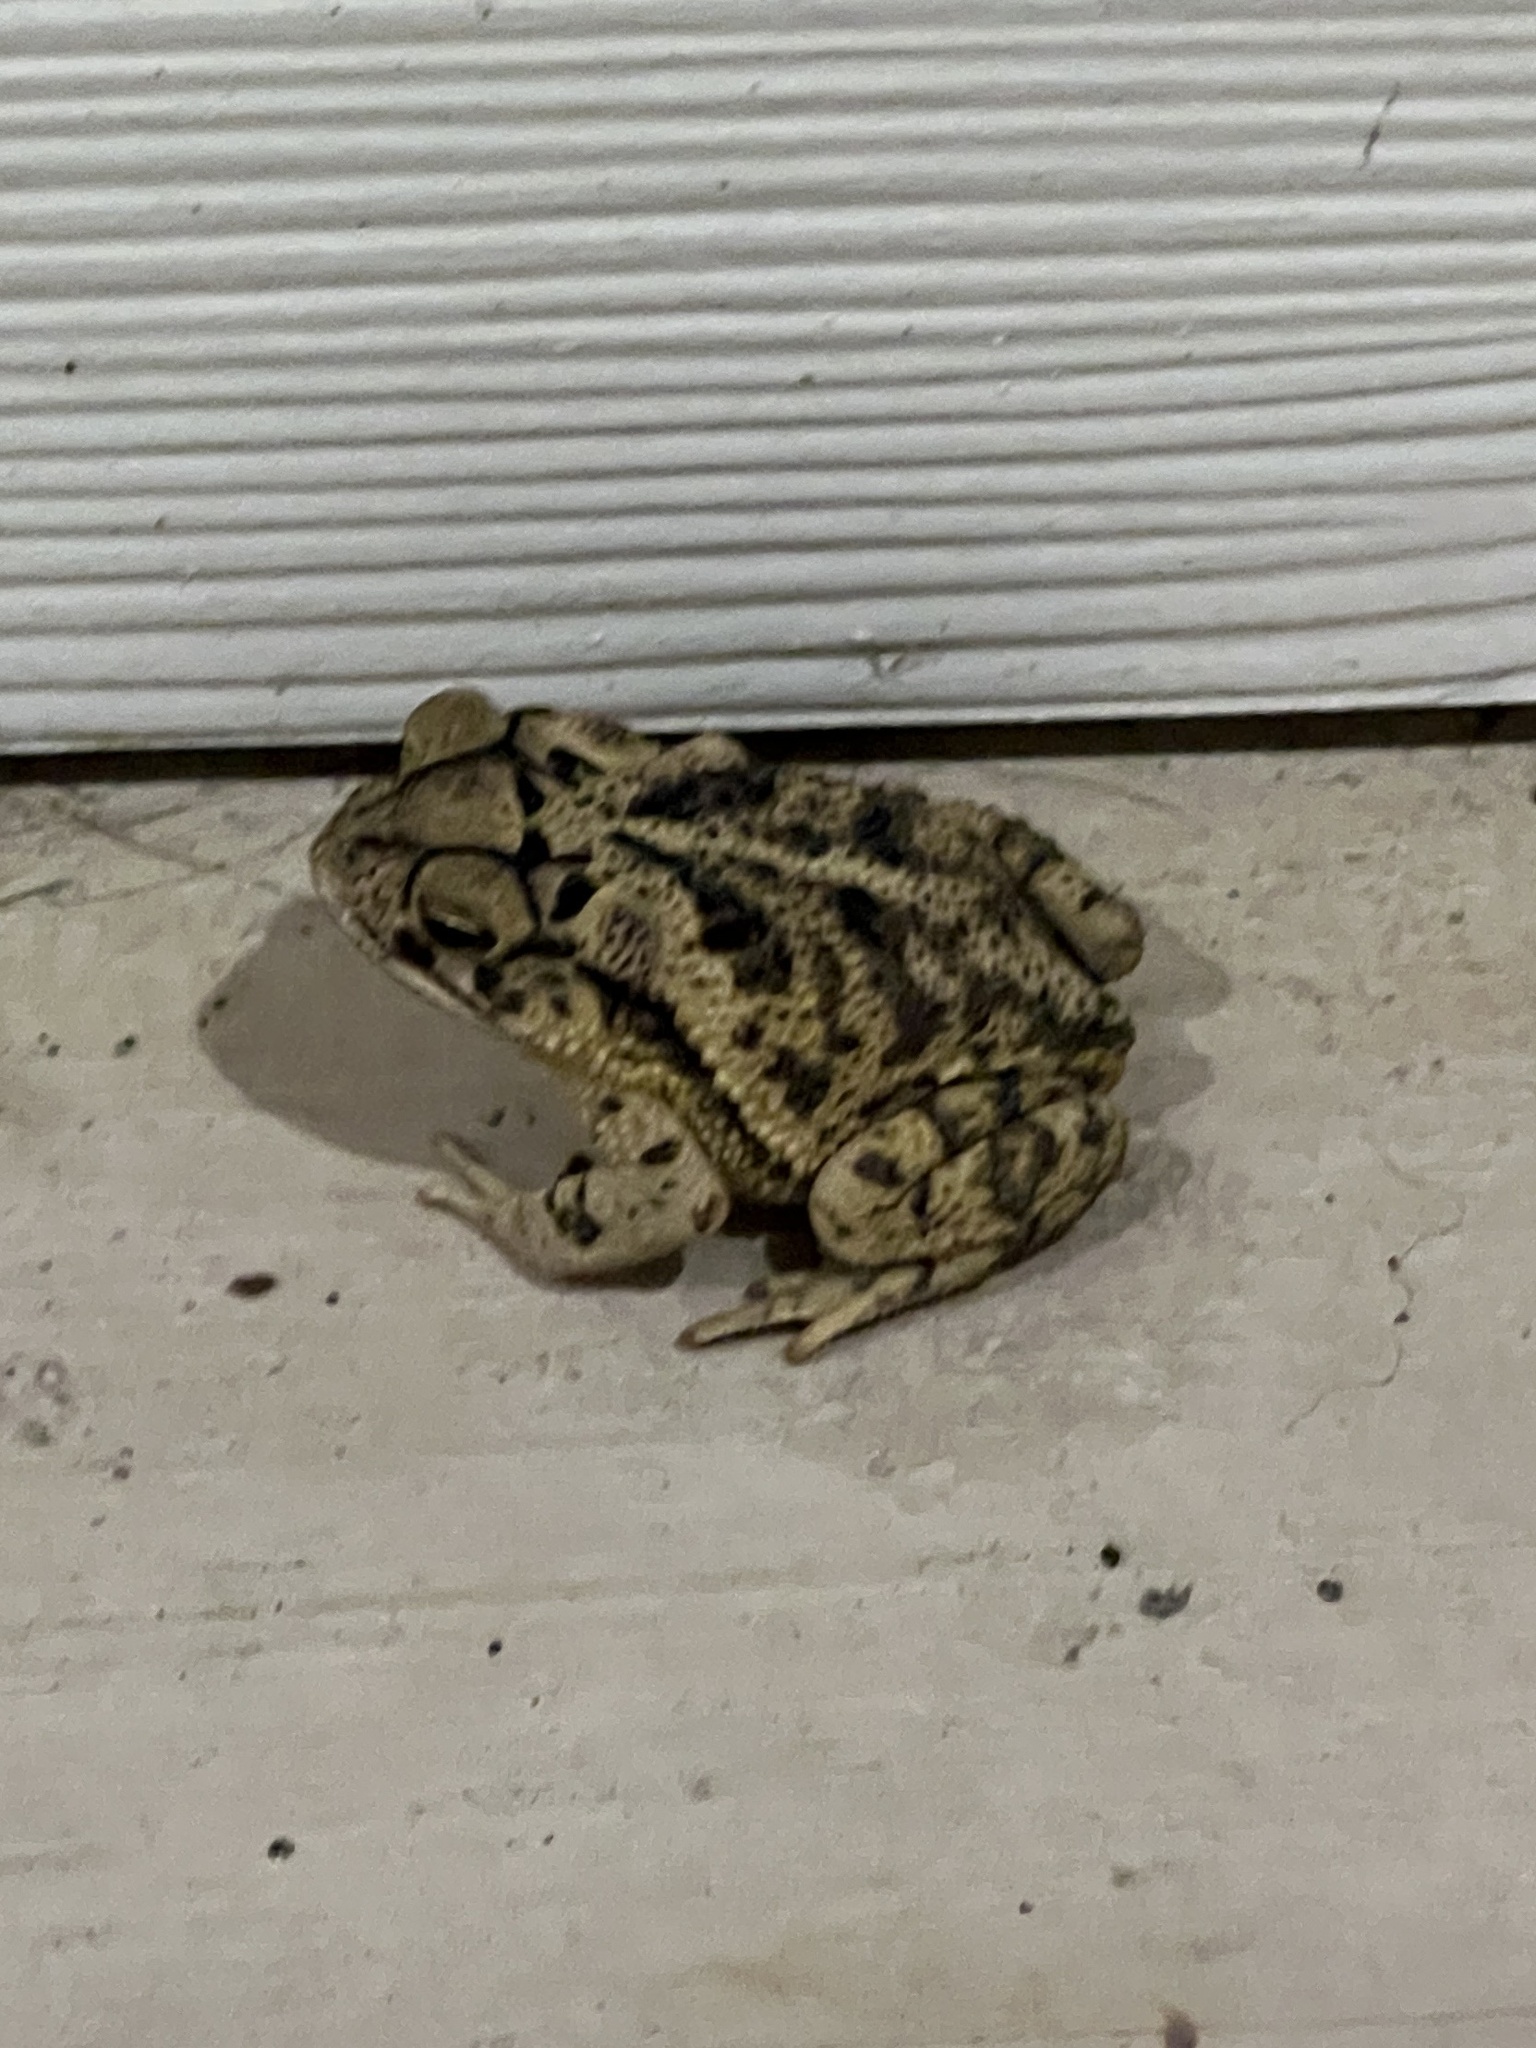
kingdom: Animalia
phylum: Chordata
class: Amphibia
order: Anura
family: Bufonidae
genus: Incilius
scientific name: Incilius nebulifer
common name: Gulf coast toad
